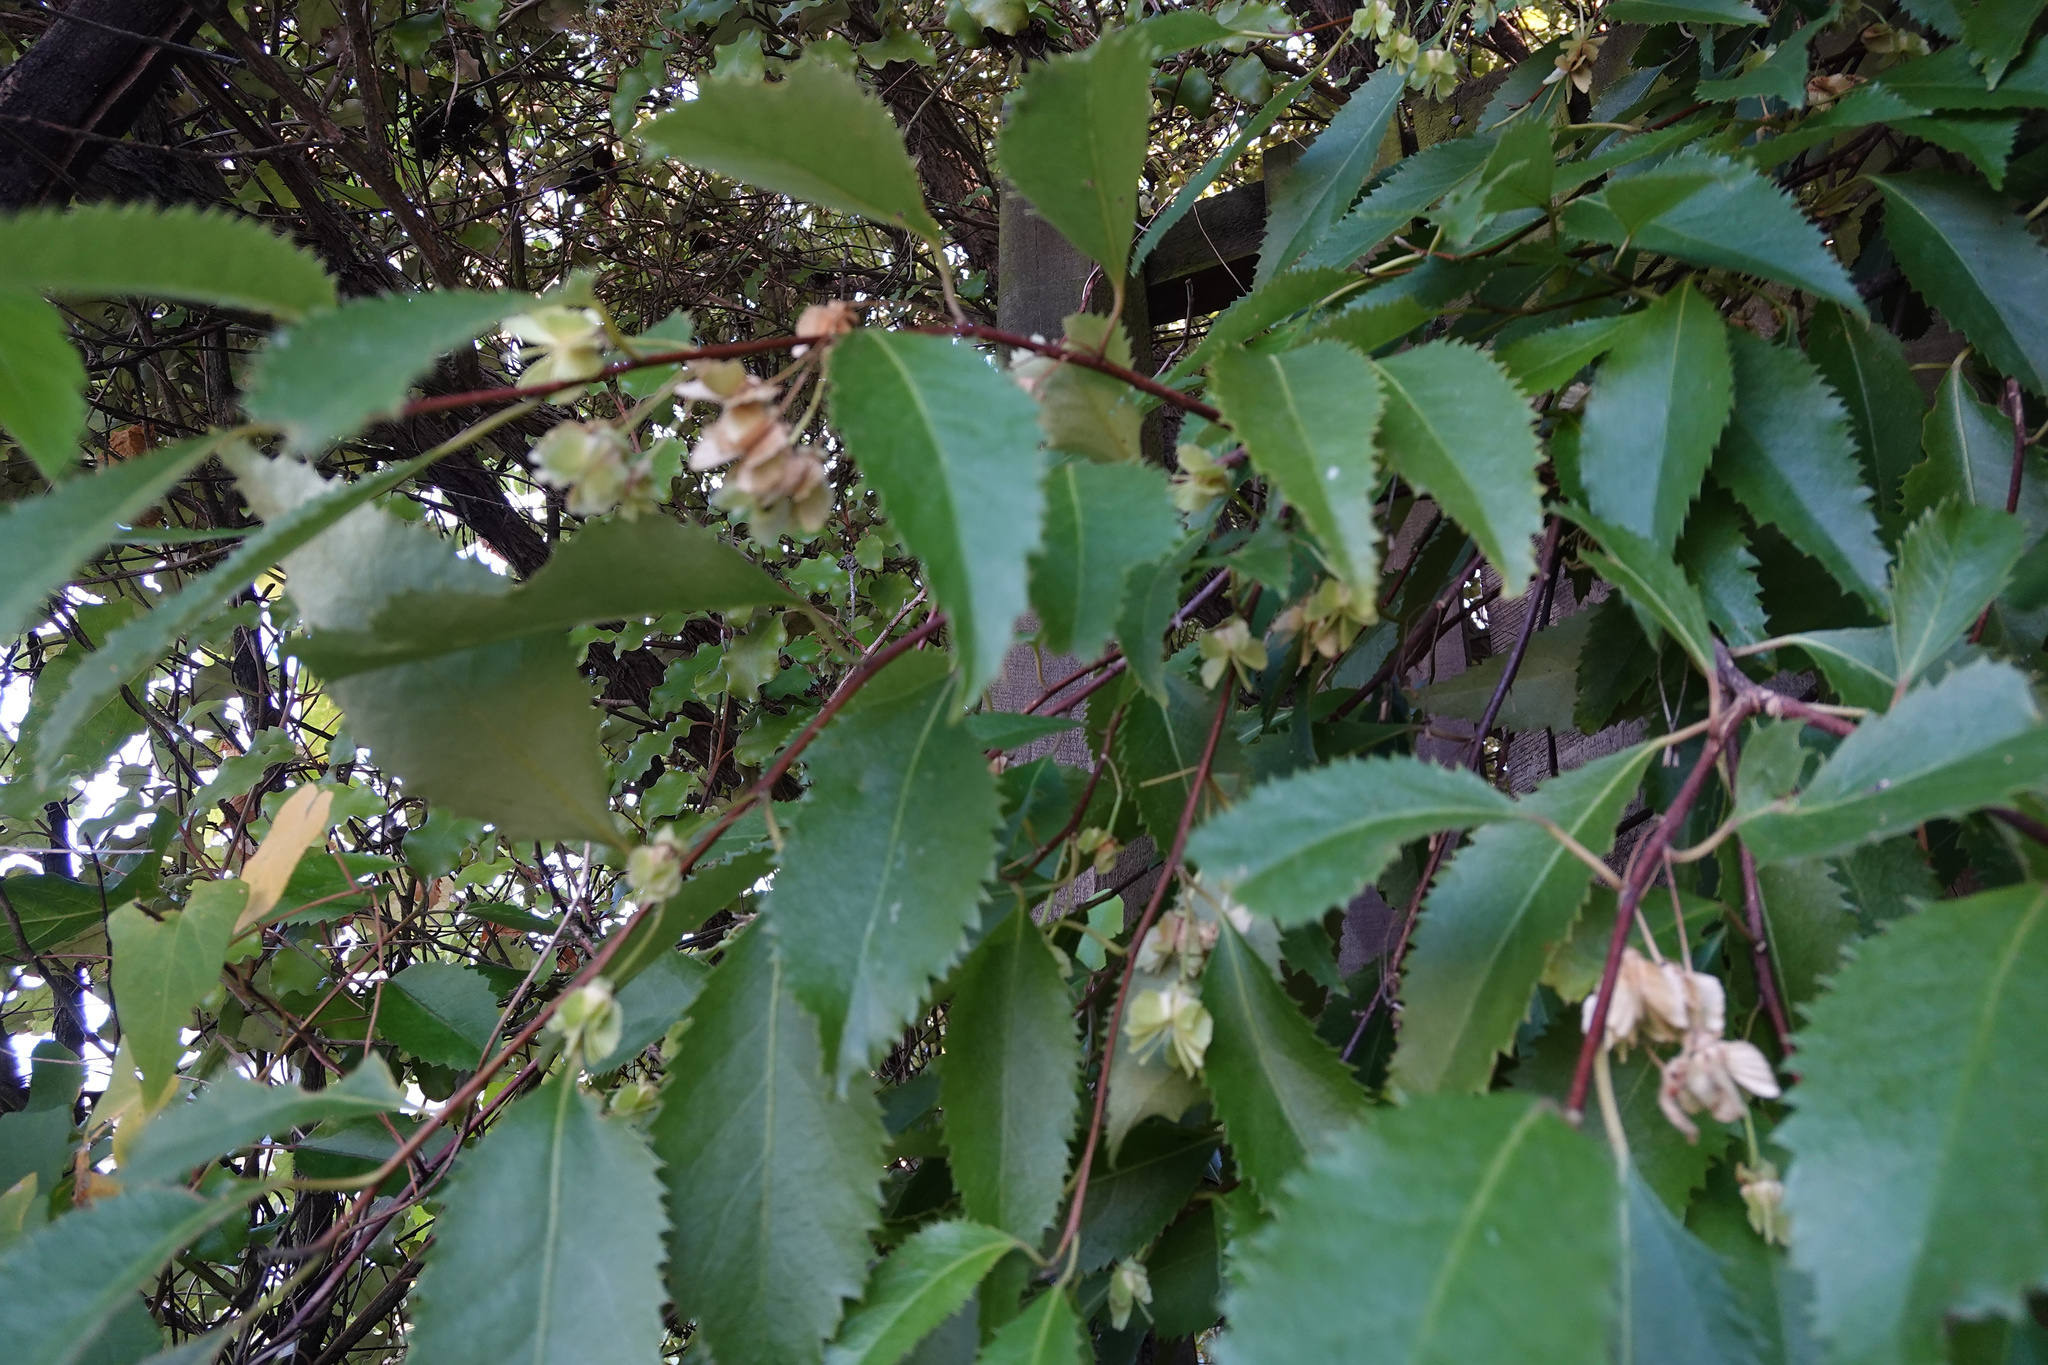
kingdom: Plantae
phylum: Tracheophyta
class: Magnoliopsida
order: Malvales
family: Malvaceae
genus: Hoheria
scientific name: Hoheria populnea
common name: Lacebark
